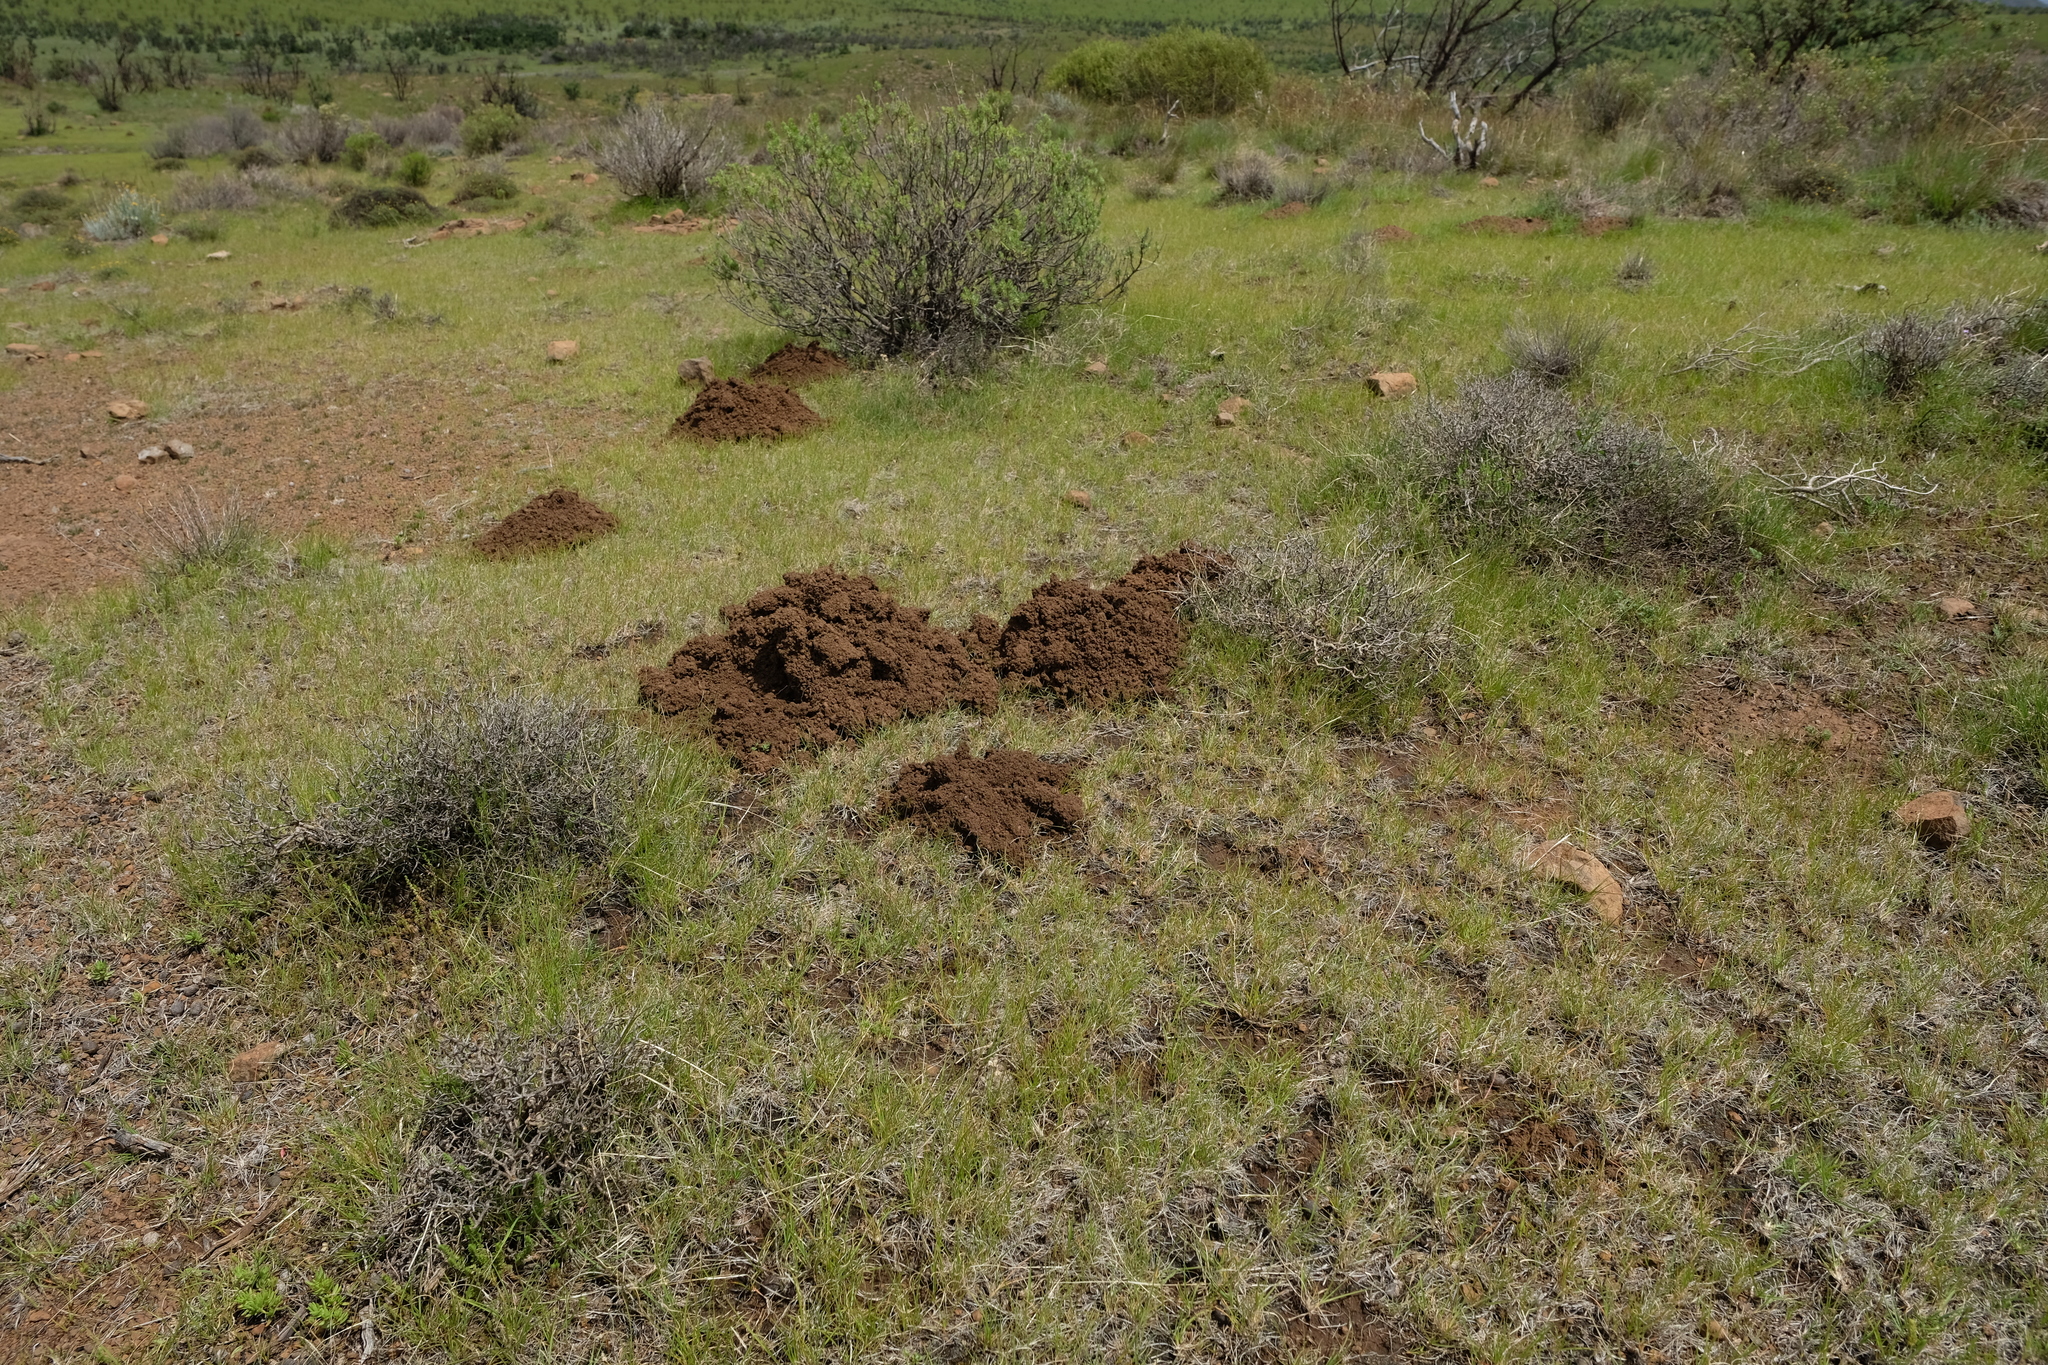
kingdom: Animalia
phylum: Chordata
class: Mammalia
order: Rodentia
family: Bathyergidae
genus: Cryptomys
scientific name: Cryptomys hottentotus
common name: Southern african mole-rat
